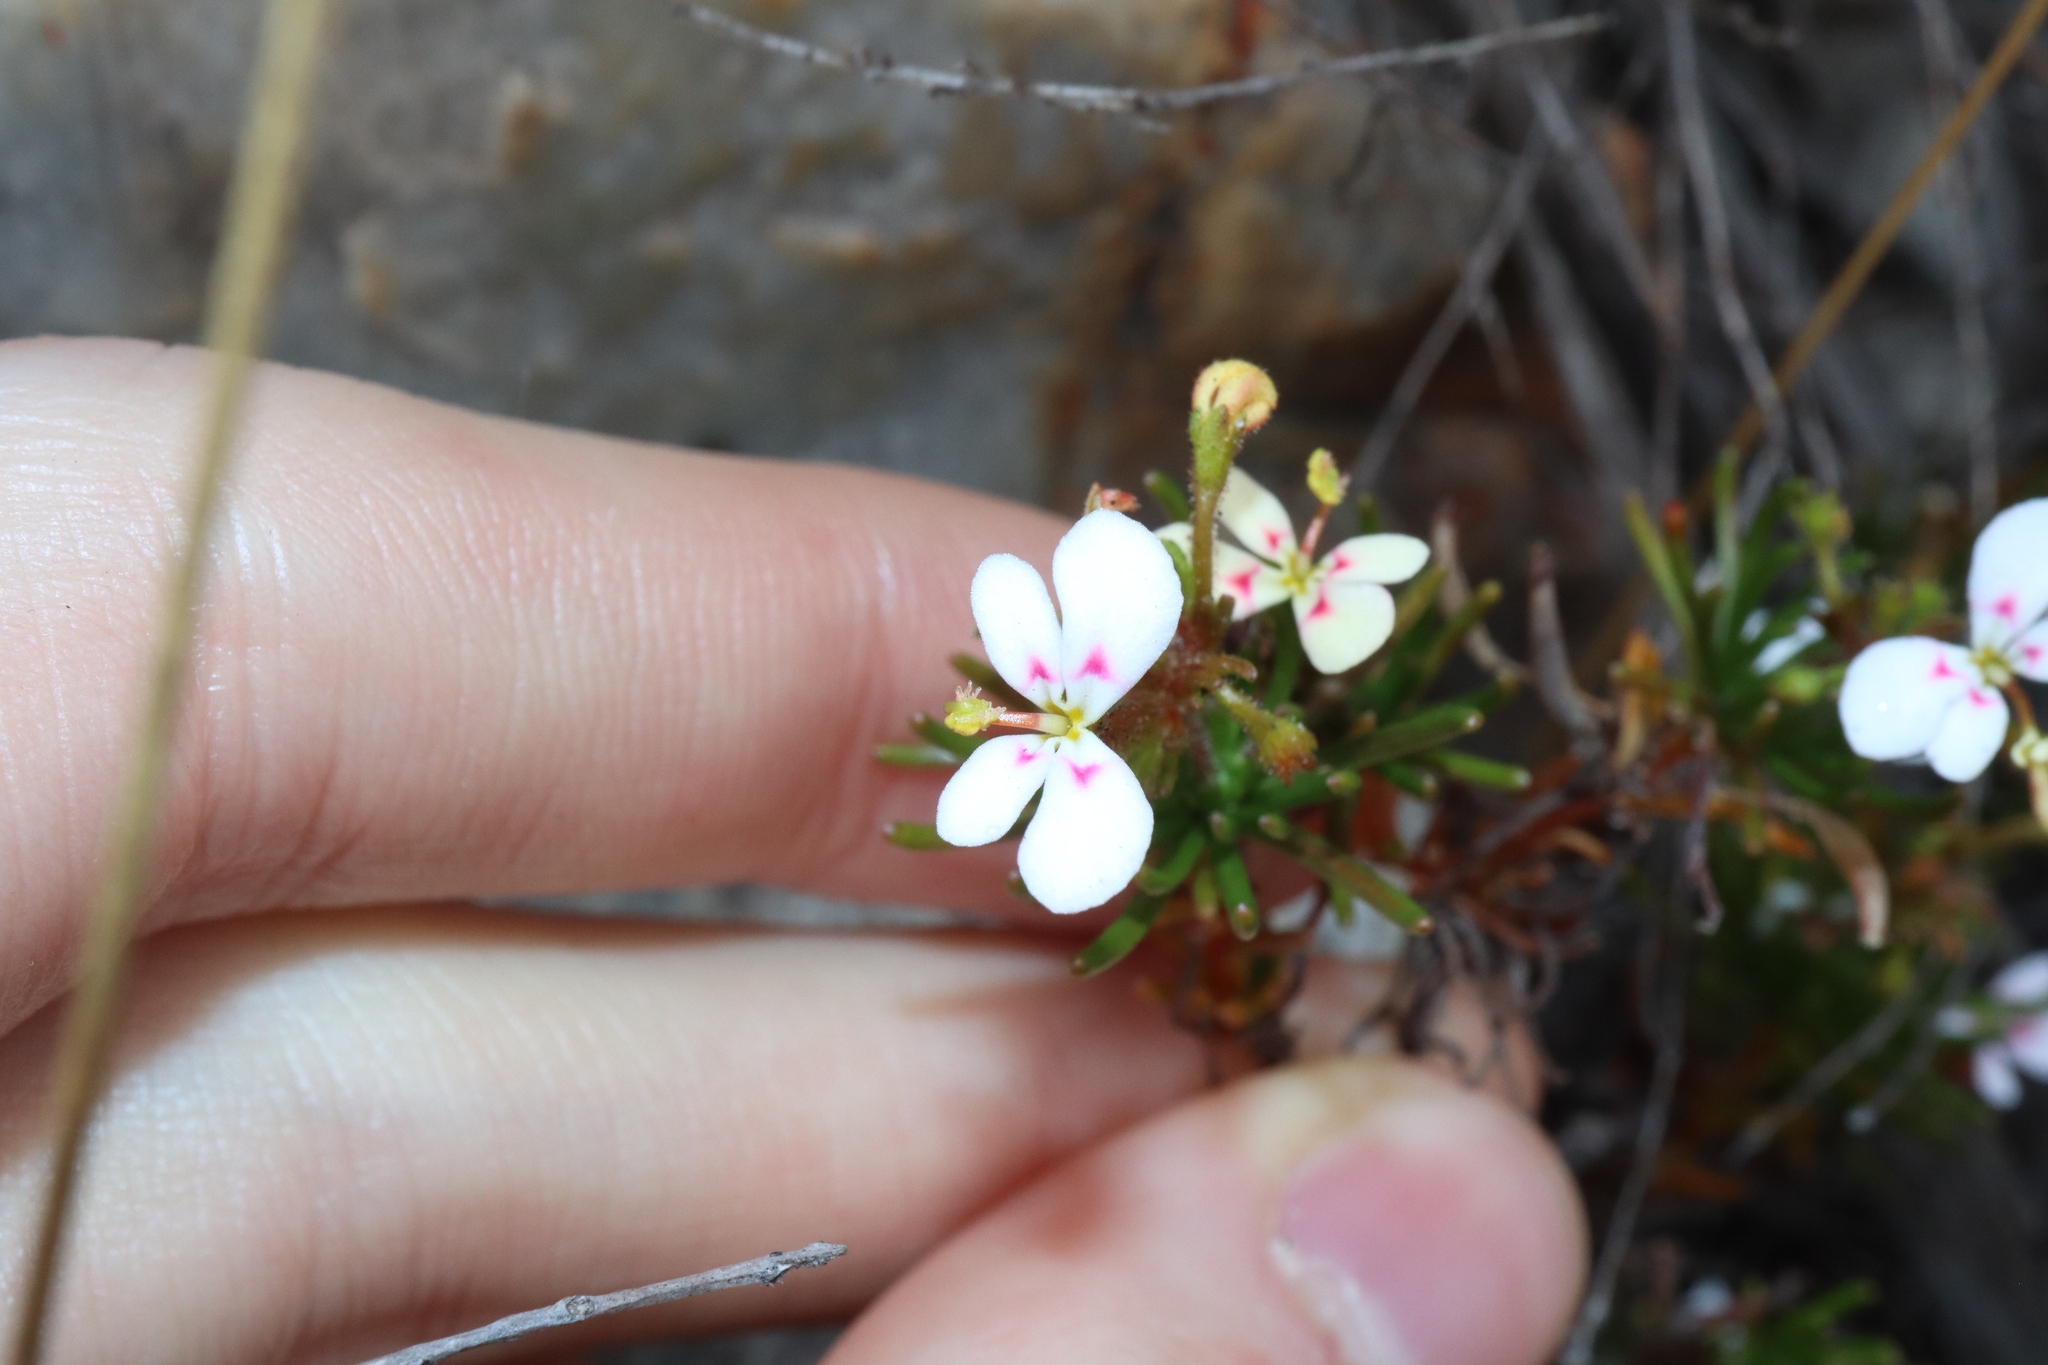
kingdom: Plantae
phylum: Tracheophyta
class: Magnoliopsida
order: Asterales
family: Stylidiaceae
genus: Stylidium
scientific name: Stylidium breviscapum
